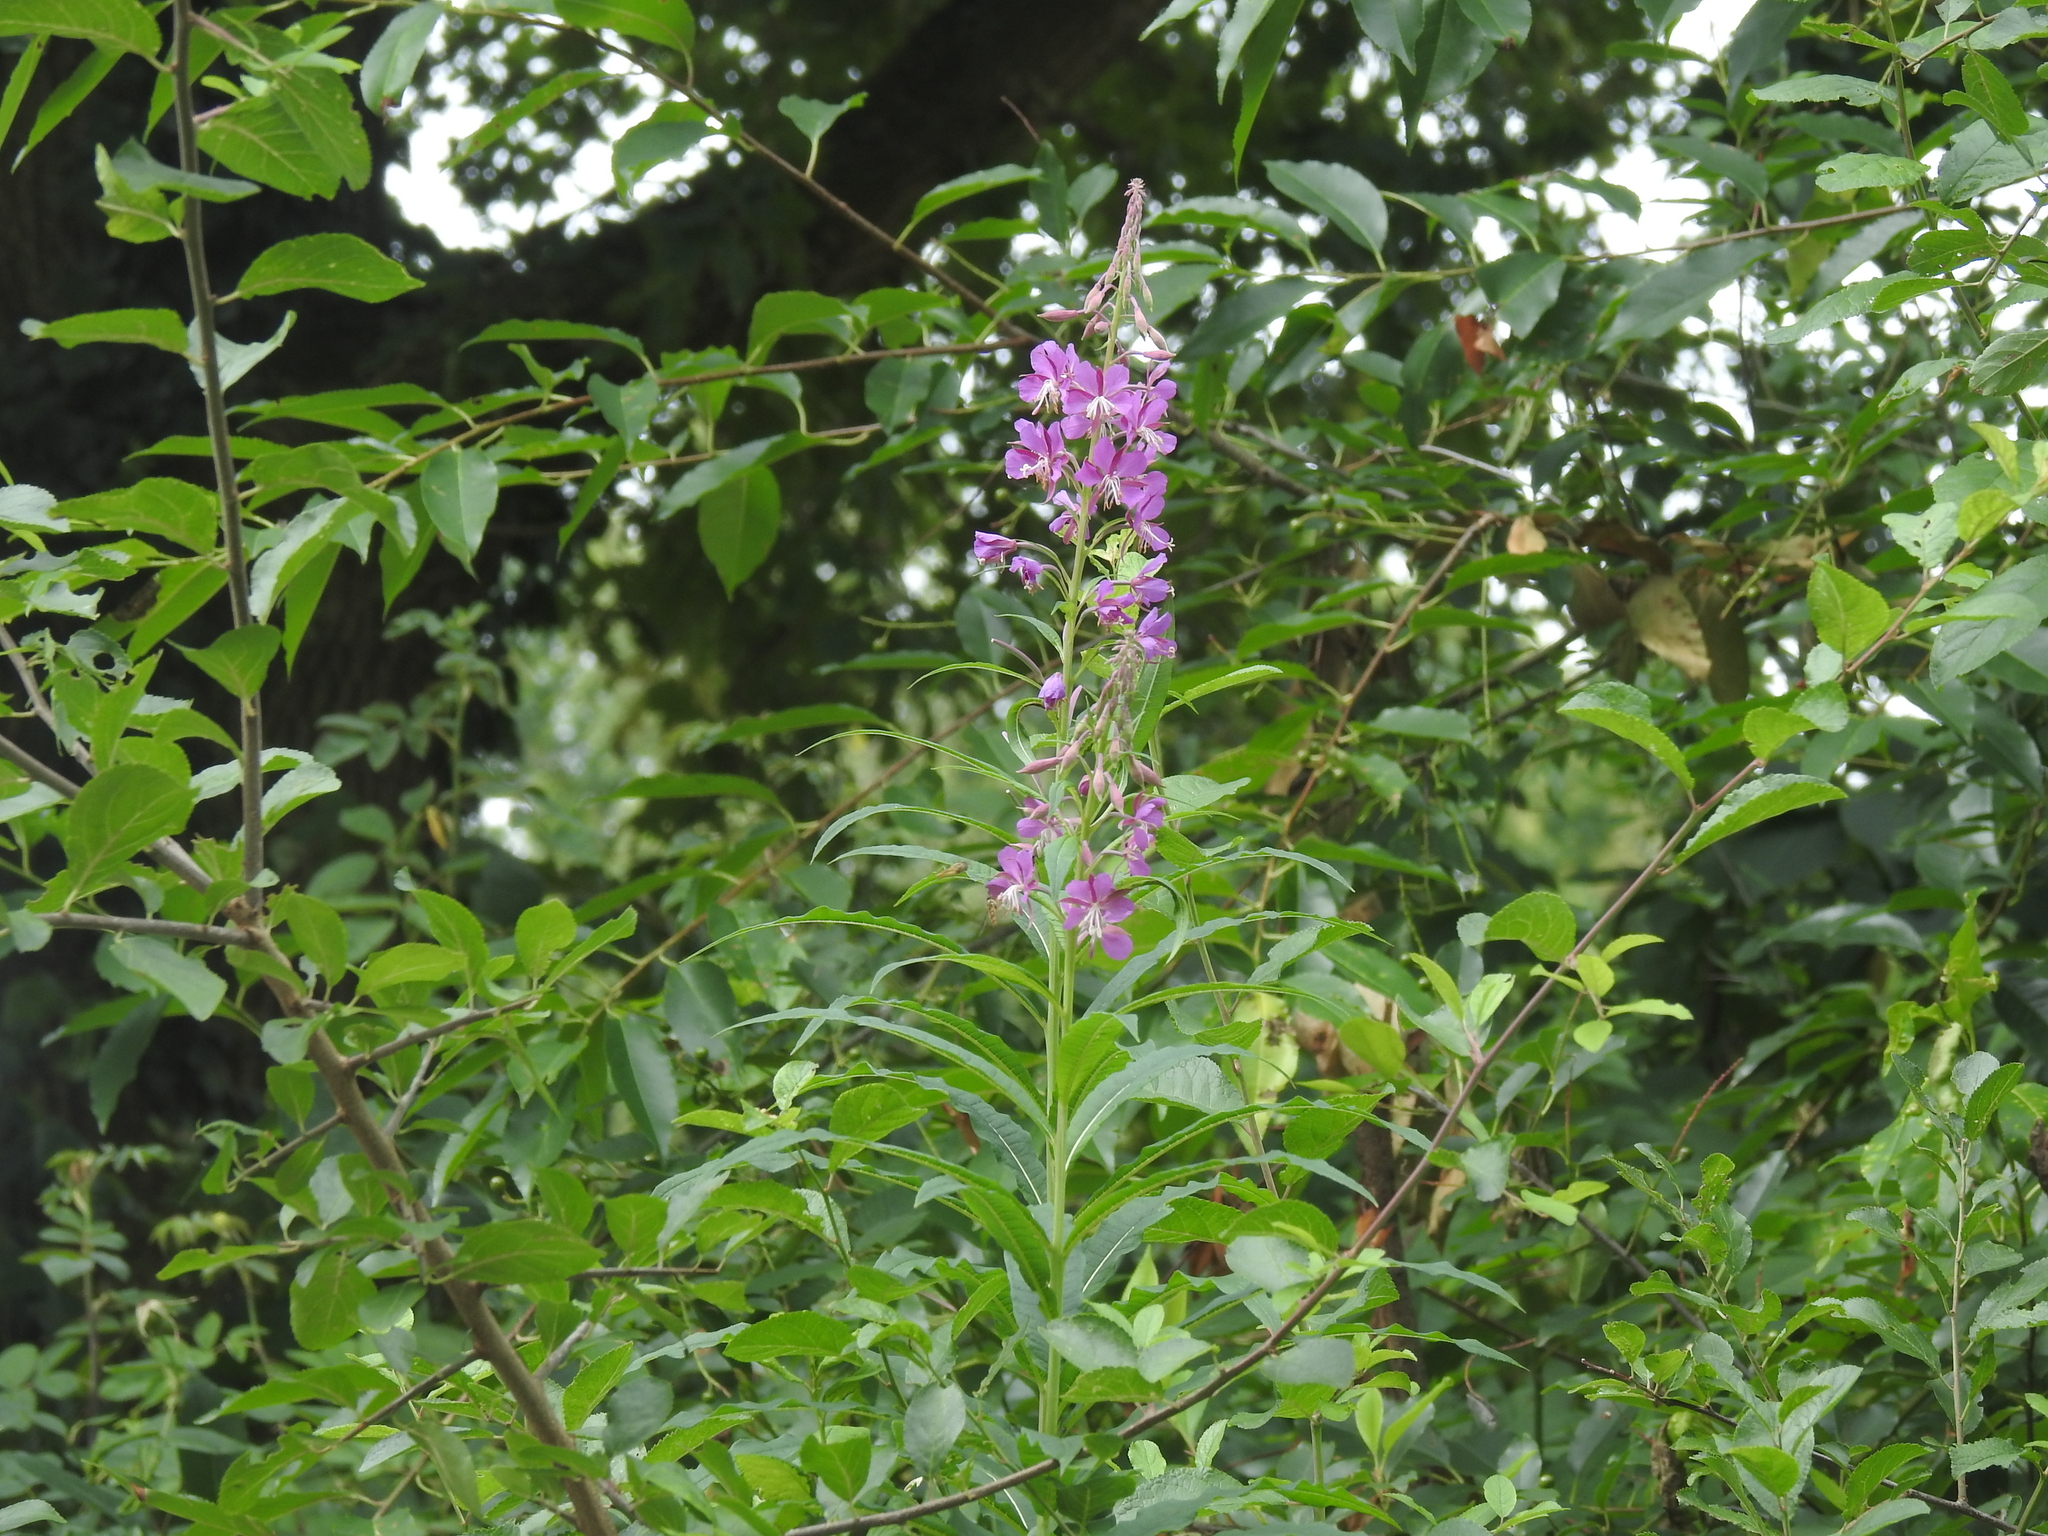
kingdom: Plantae
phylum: Tracheophyta
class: Magnoliopsida
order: Myrtales
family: Onagraceae
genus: Chamaenerion
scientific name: Chamaenerion angustifolium
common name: Fireweed
